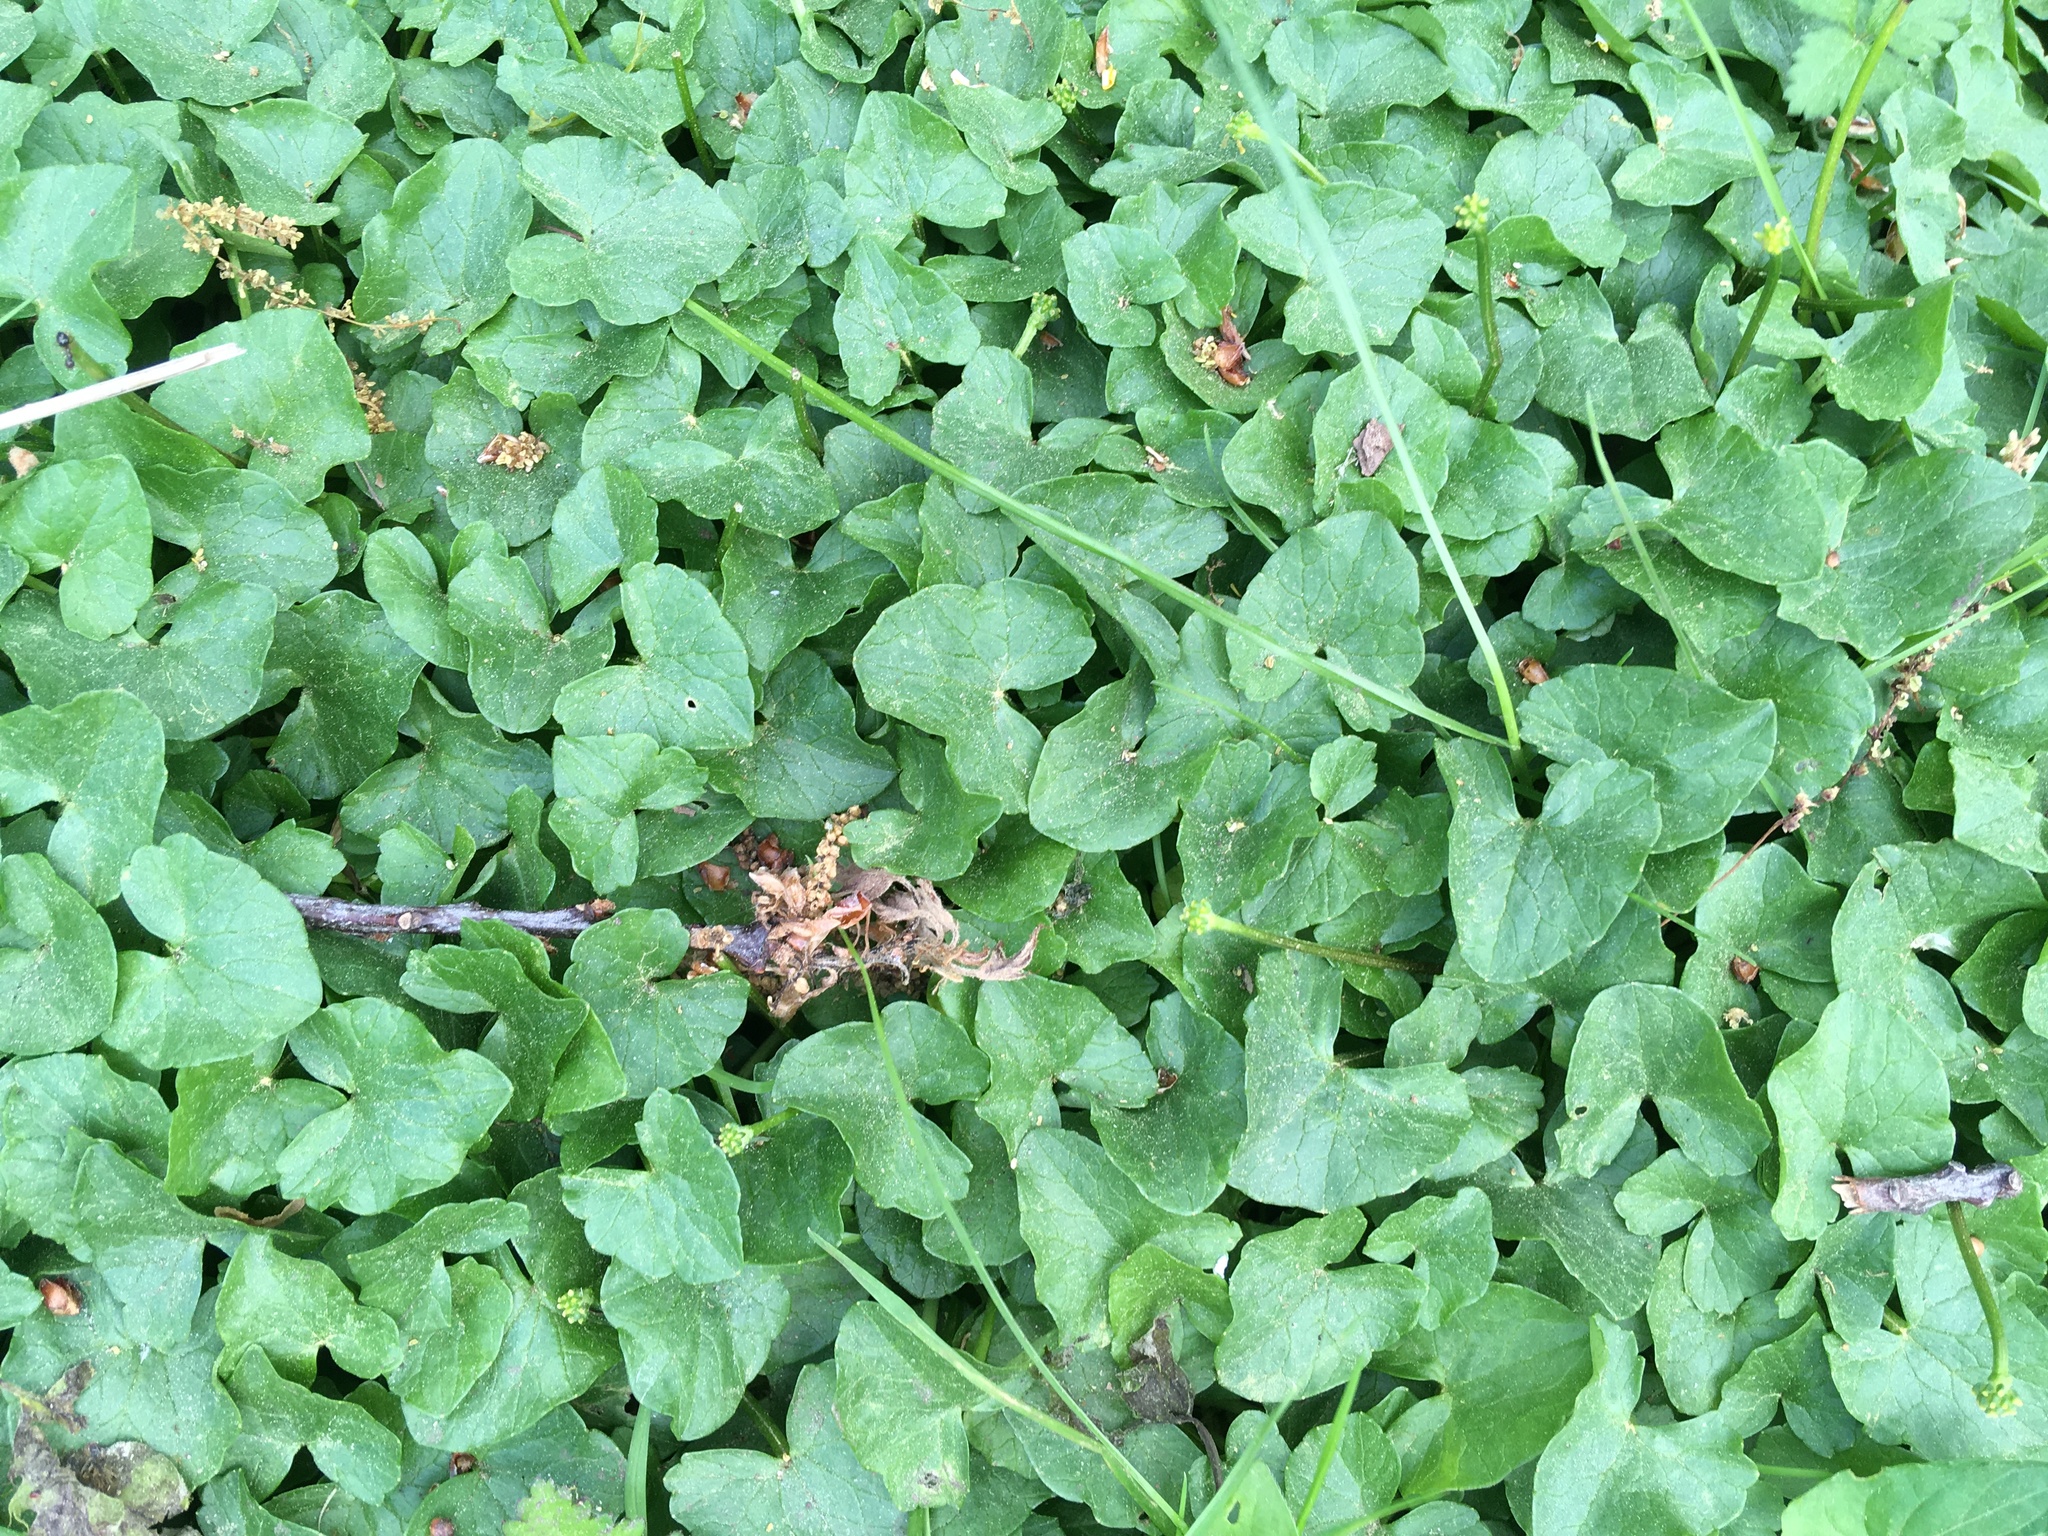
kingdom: Plantae
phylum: Tracheophyta
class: Magnoliopsida
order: Ranunculales
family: Ranunculaceae
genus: Ficaria
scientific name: Ficaria verna
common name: Lesser celandine
